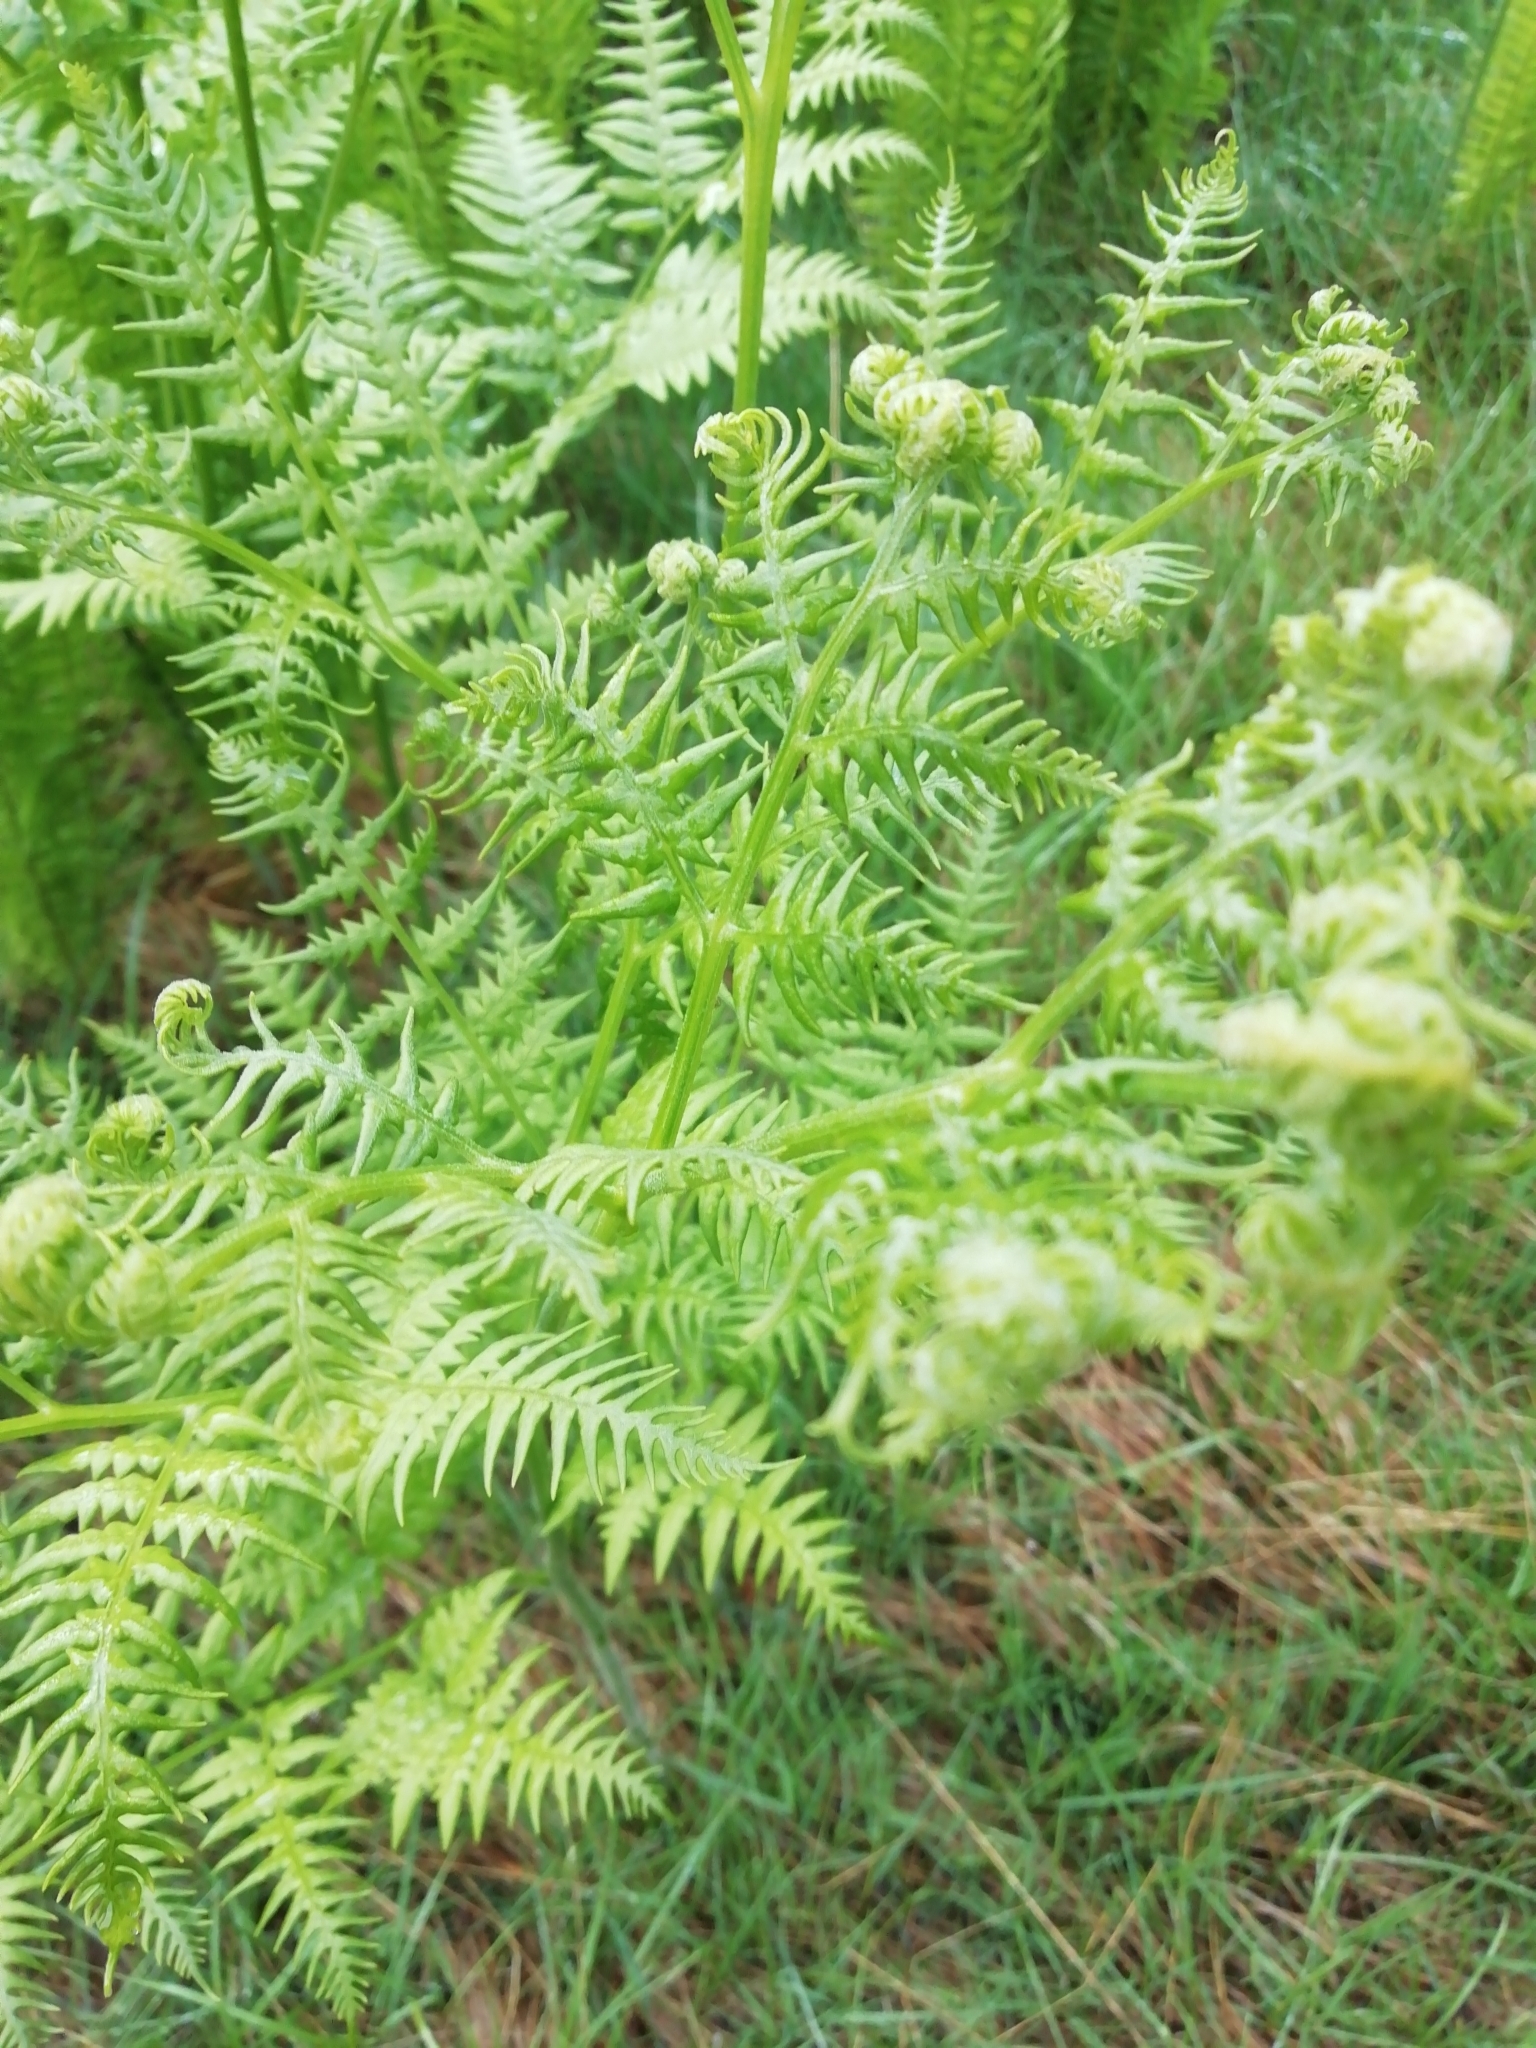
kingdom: Plantae
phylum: Tracheophyta
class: Polypodiopsida
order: Polypodiales
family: Dennstaedtiaceae
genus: Pteridium
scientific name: Pteridium aquilinum
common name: Bracken
